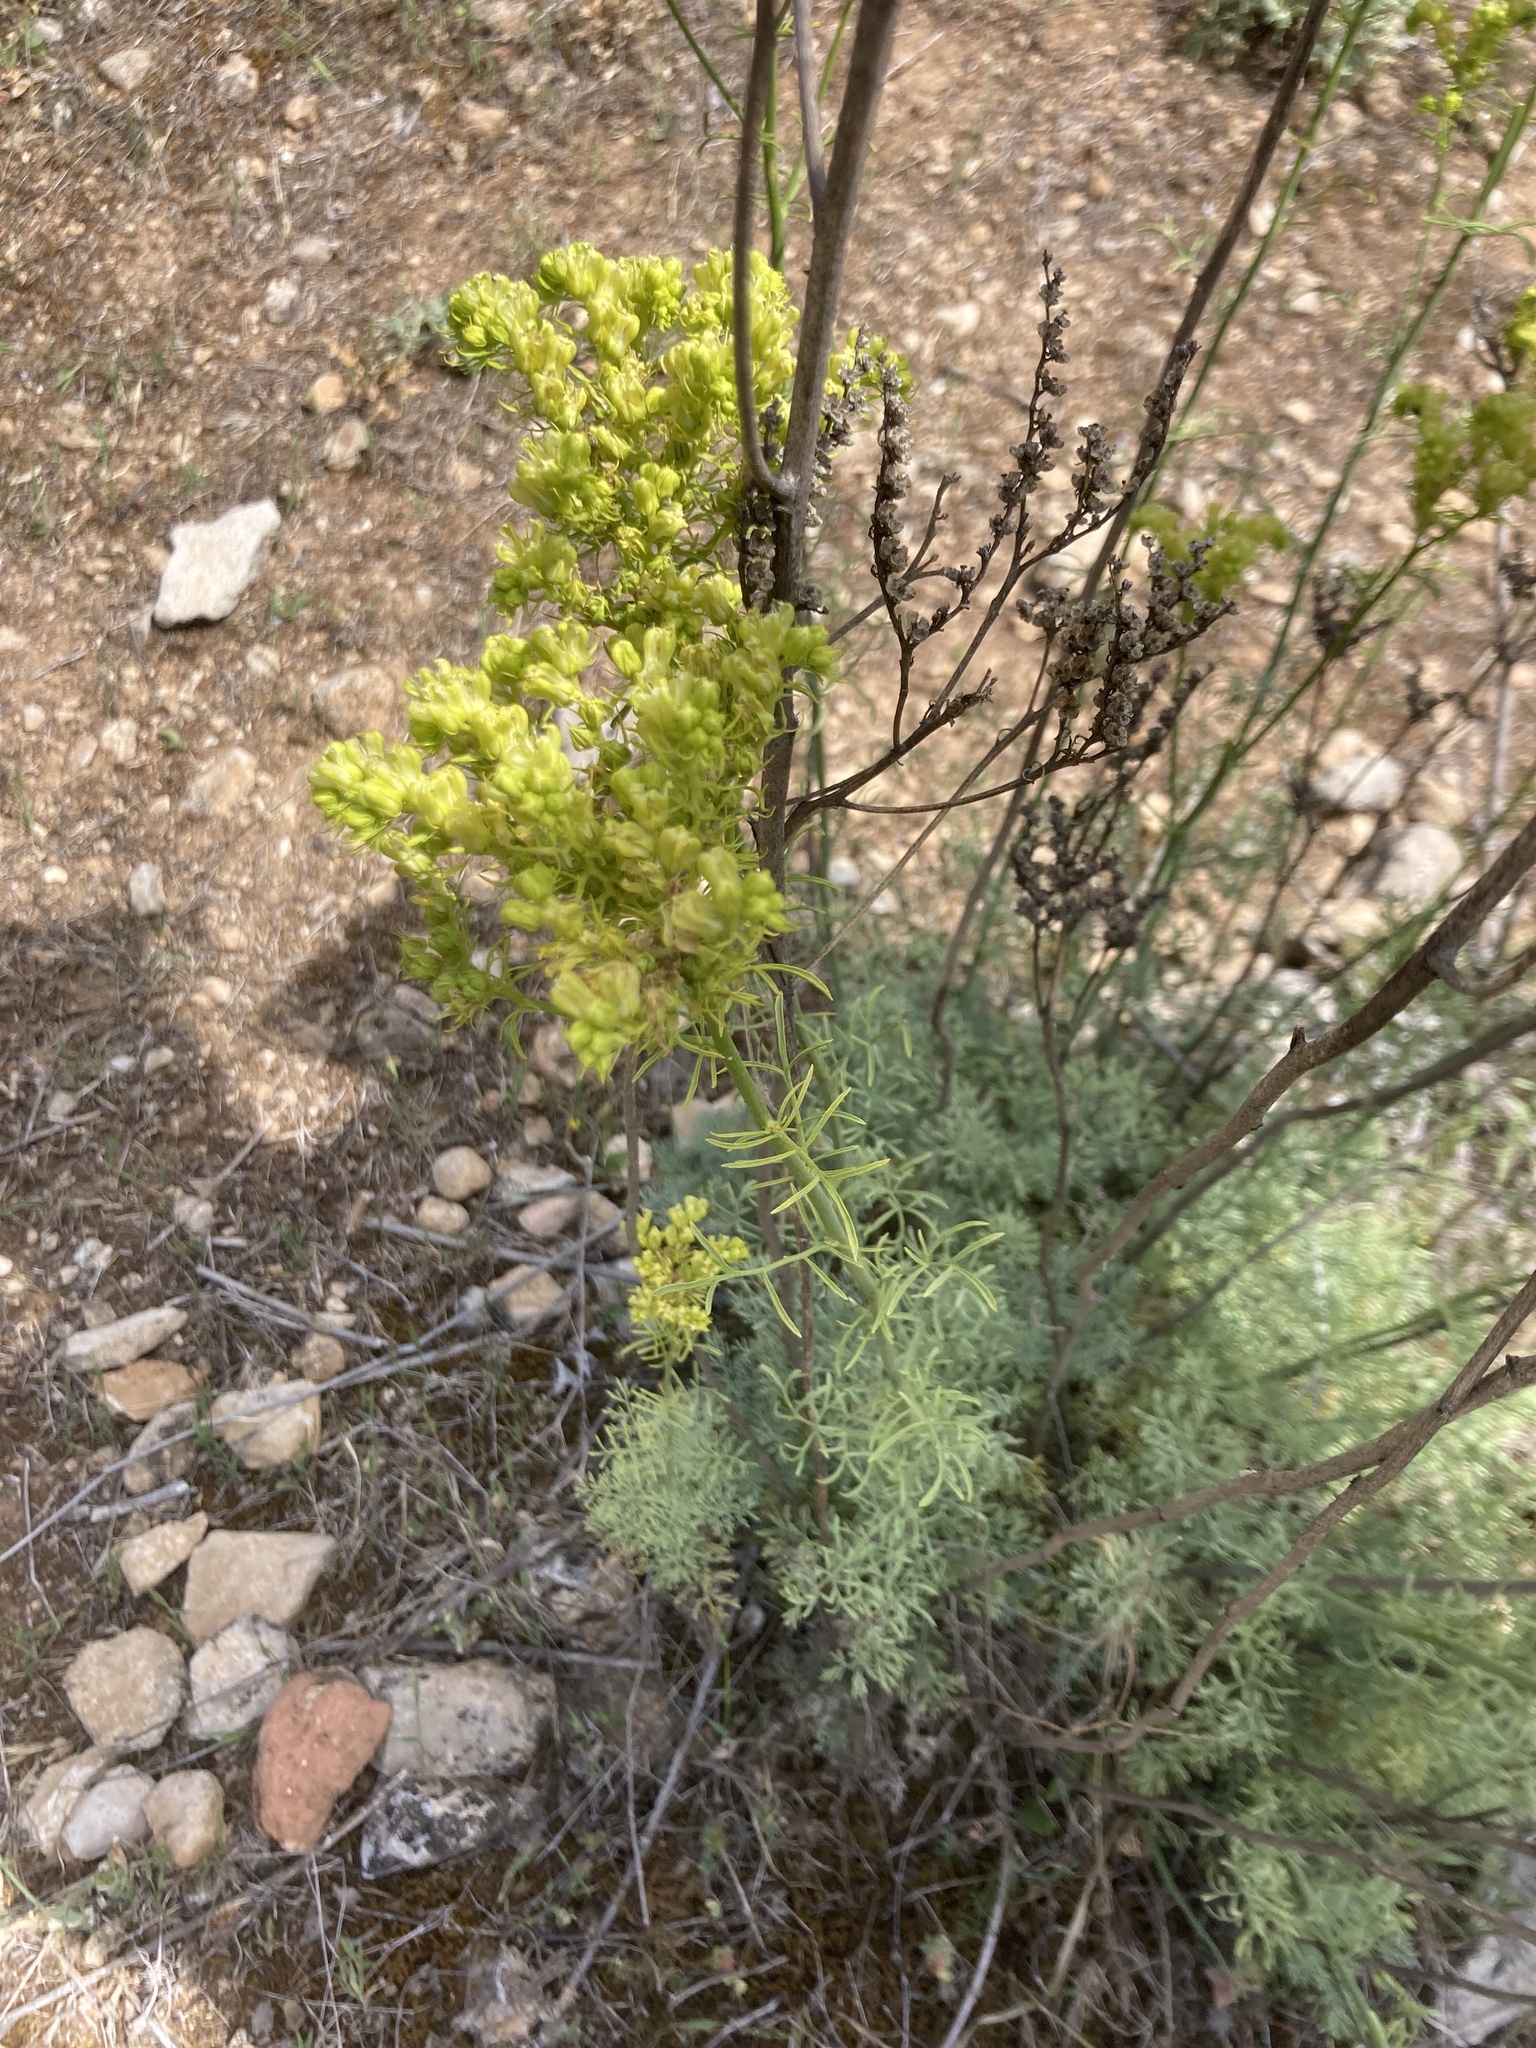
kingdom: Plantae
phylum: Tracheophyta
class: Magnoliopsida
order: Sapindales
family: Rutaceae
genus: Ruta
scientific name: Ruta montana
